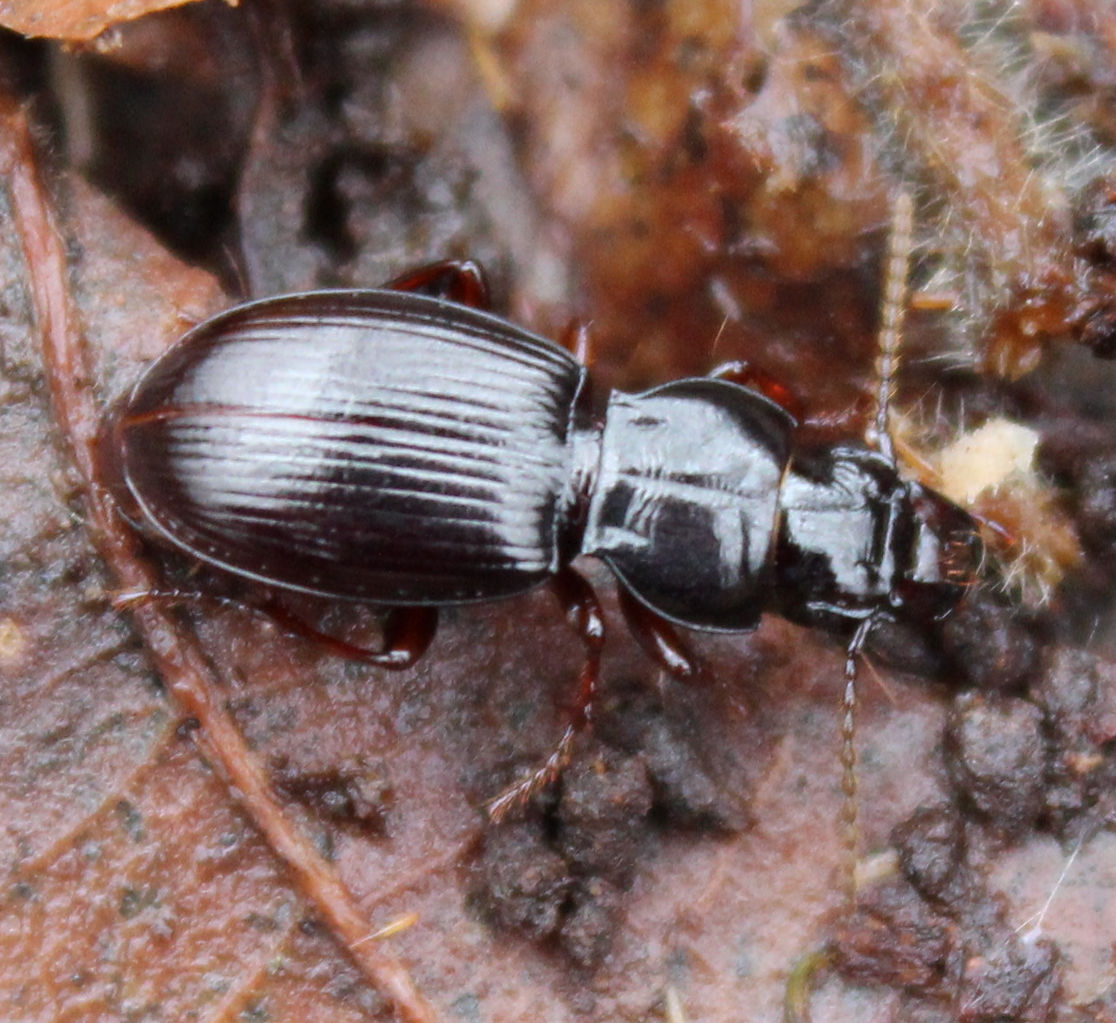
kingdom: Animalia
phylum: Arthropoda
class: Insecta
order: Coleoptera
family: Carabidae
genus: Molops
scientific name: Molops piceus
